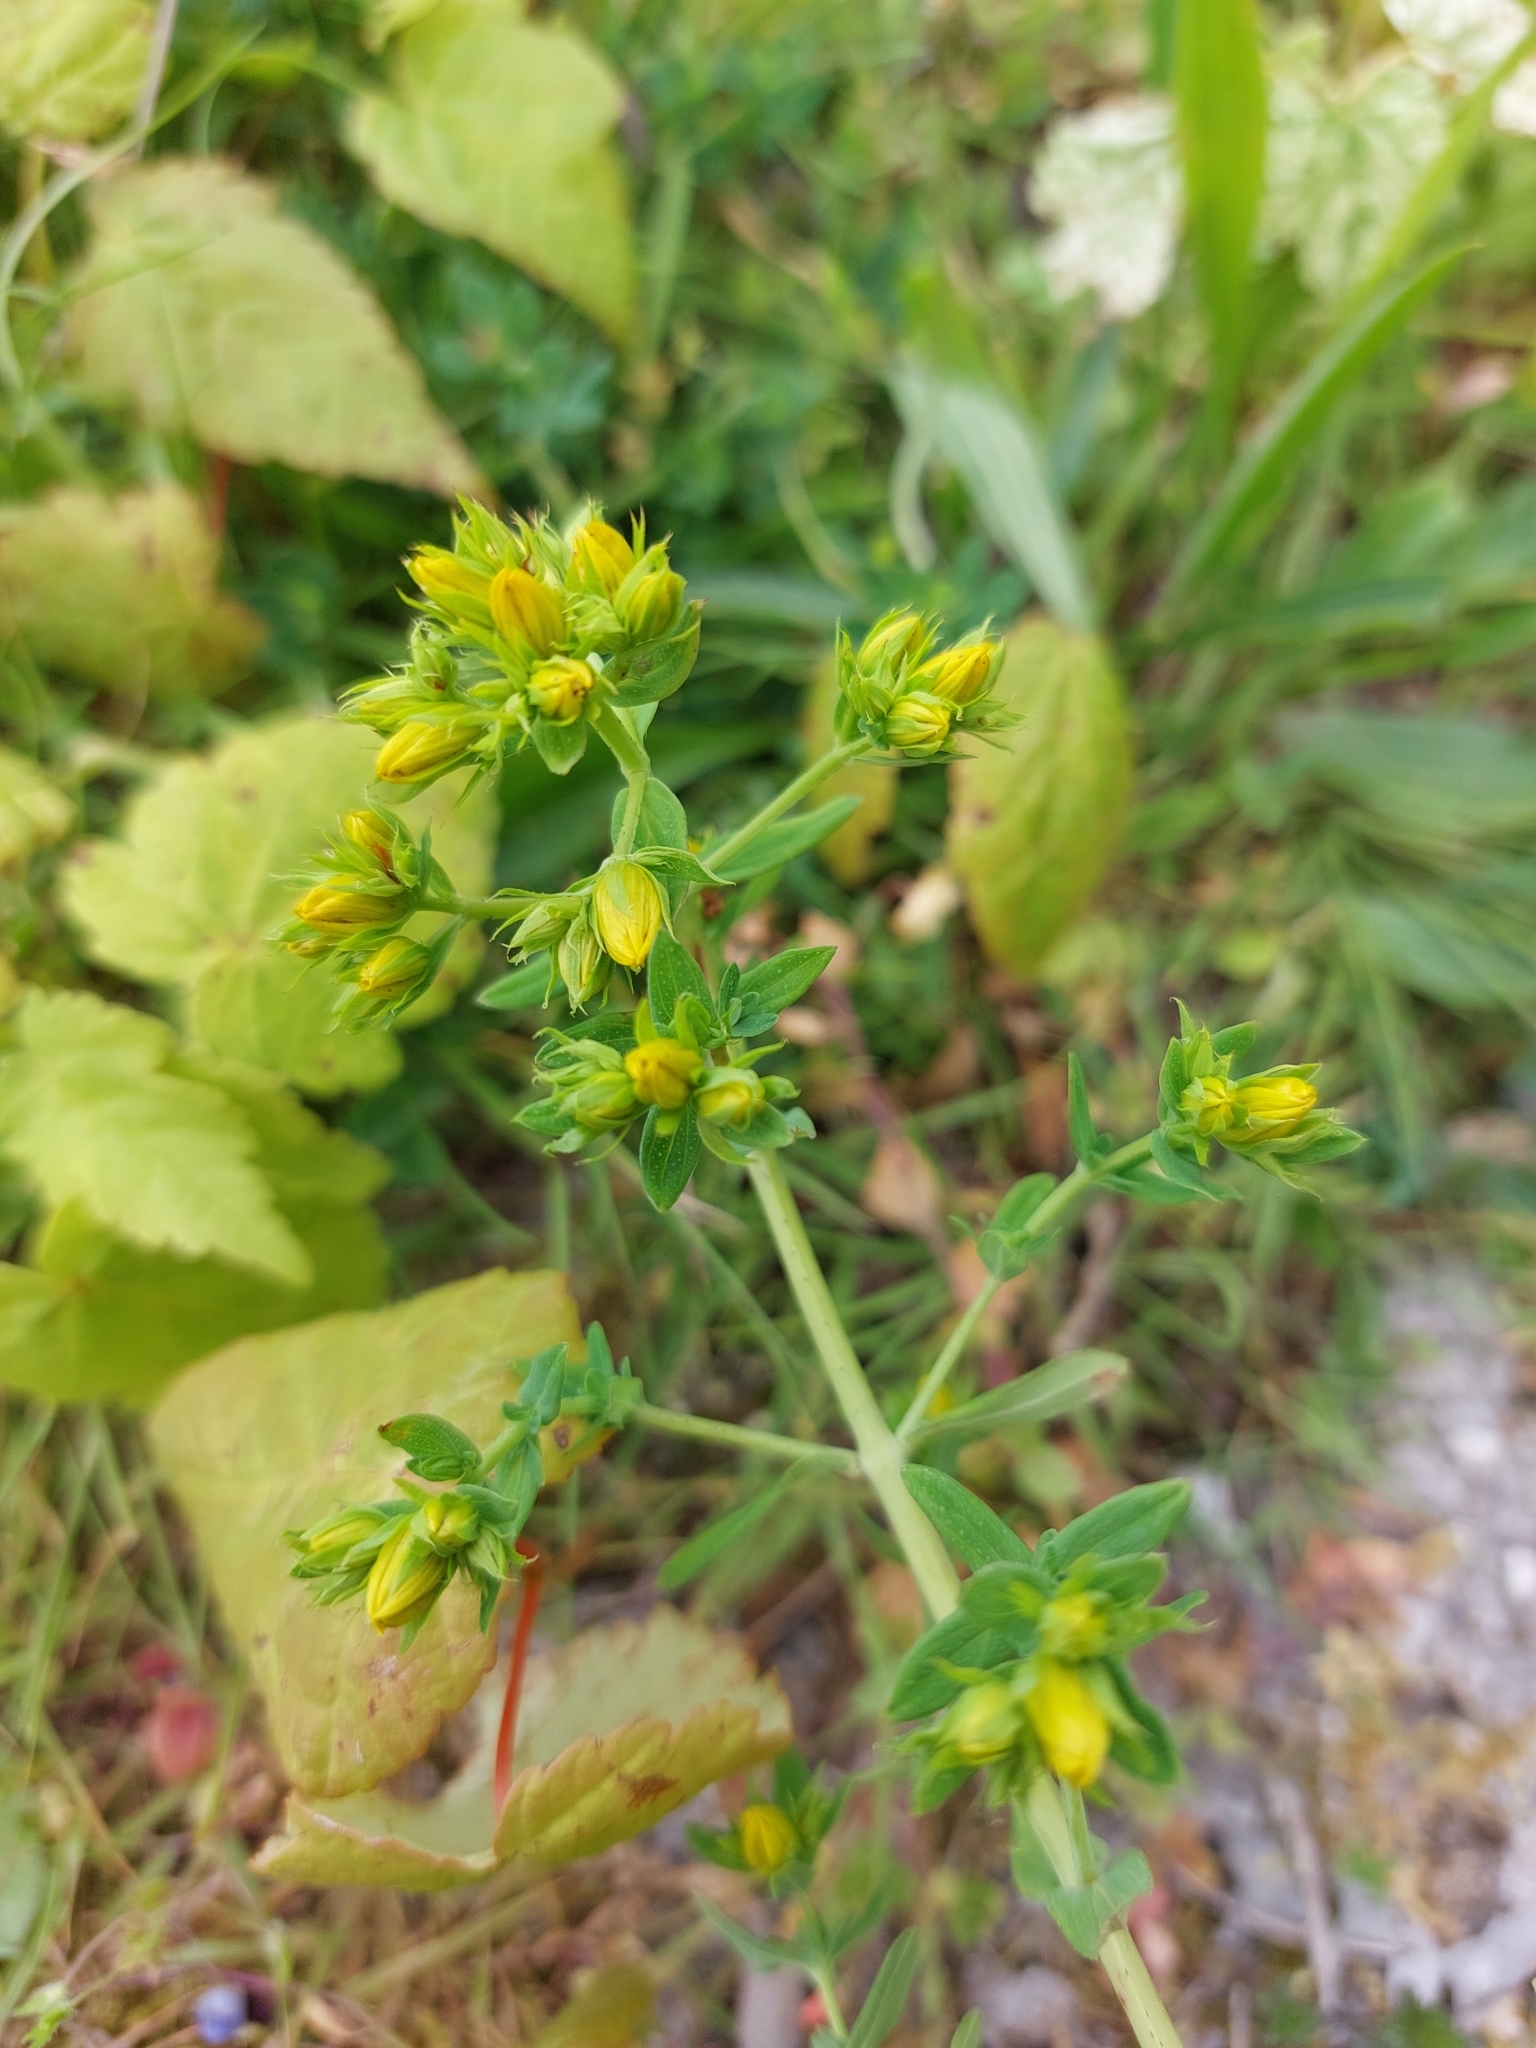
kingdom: Plantae
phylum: Tracheophyta
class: Magnoliopsida
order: Malpighiales
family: Hypericaceae
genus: Hypericum
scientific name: Hypericum perforatum
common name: Common st. johnswort
